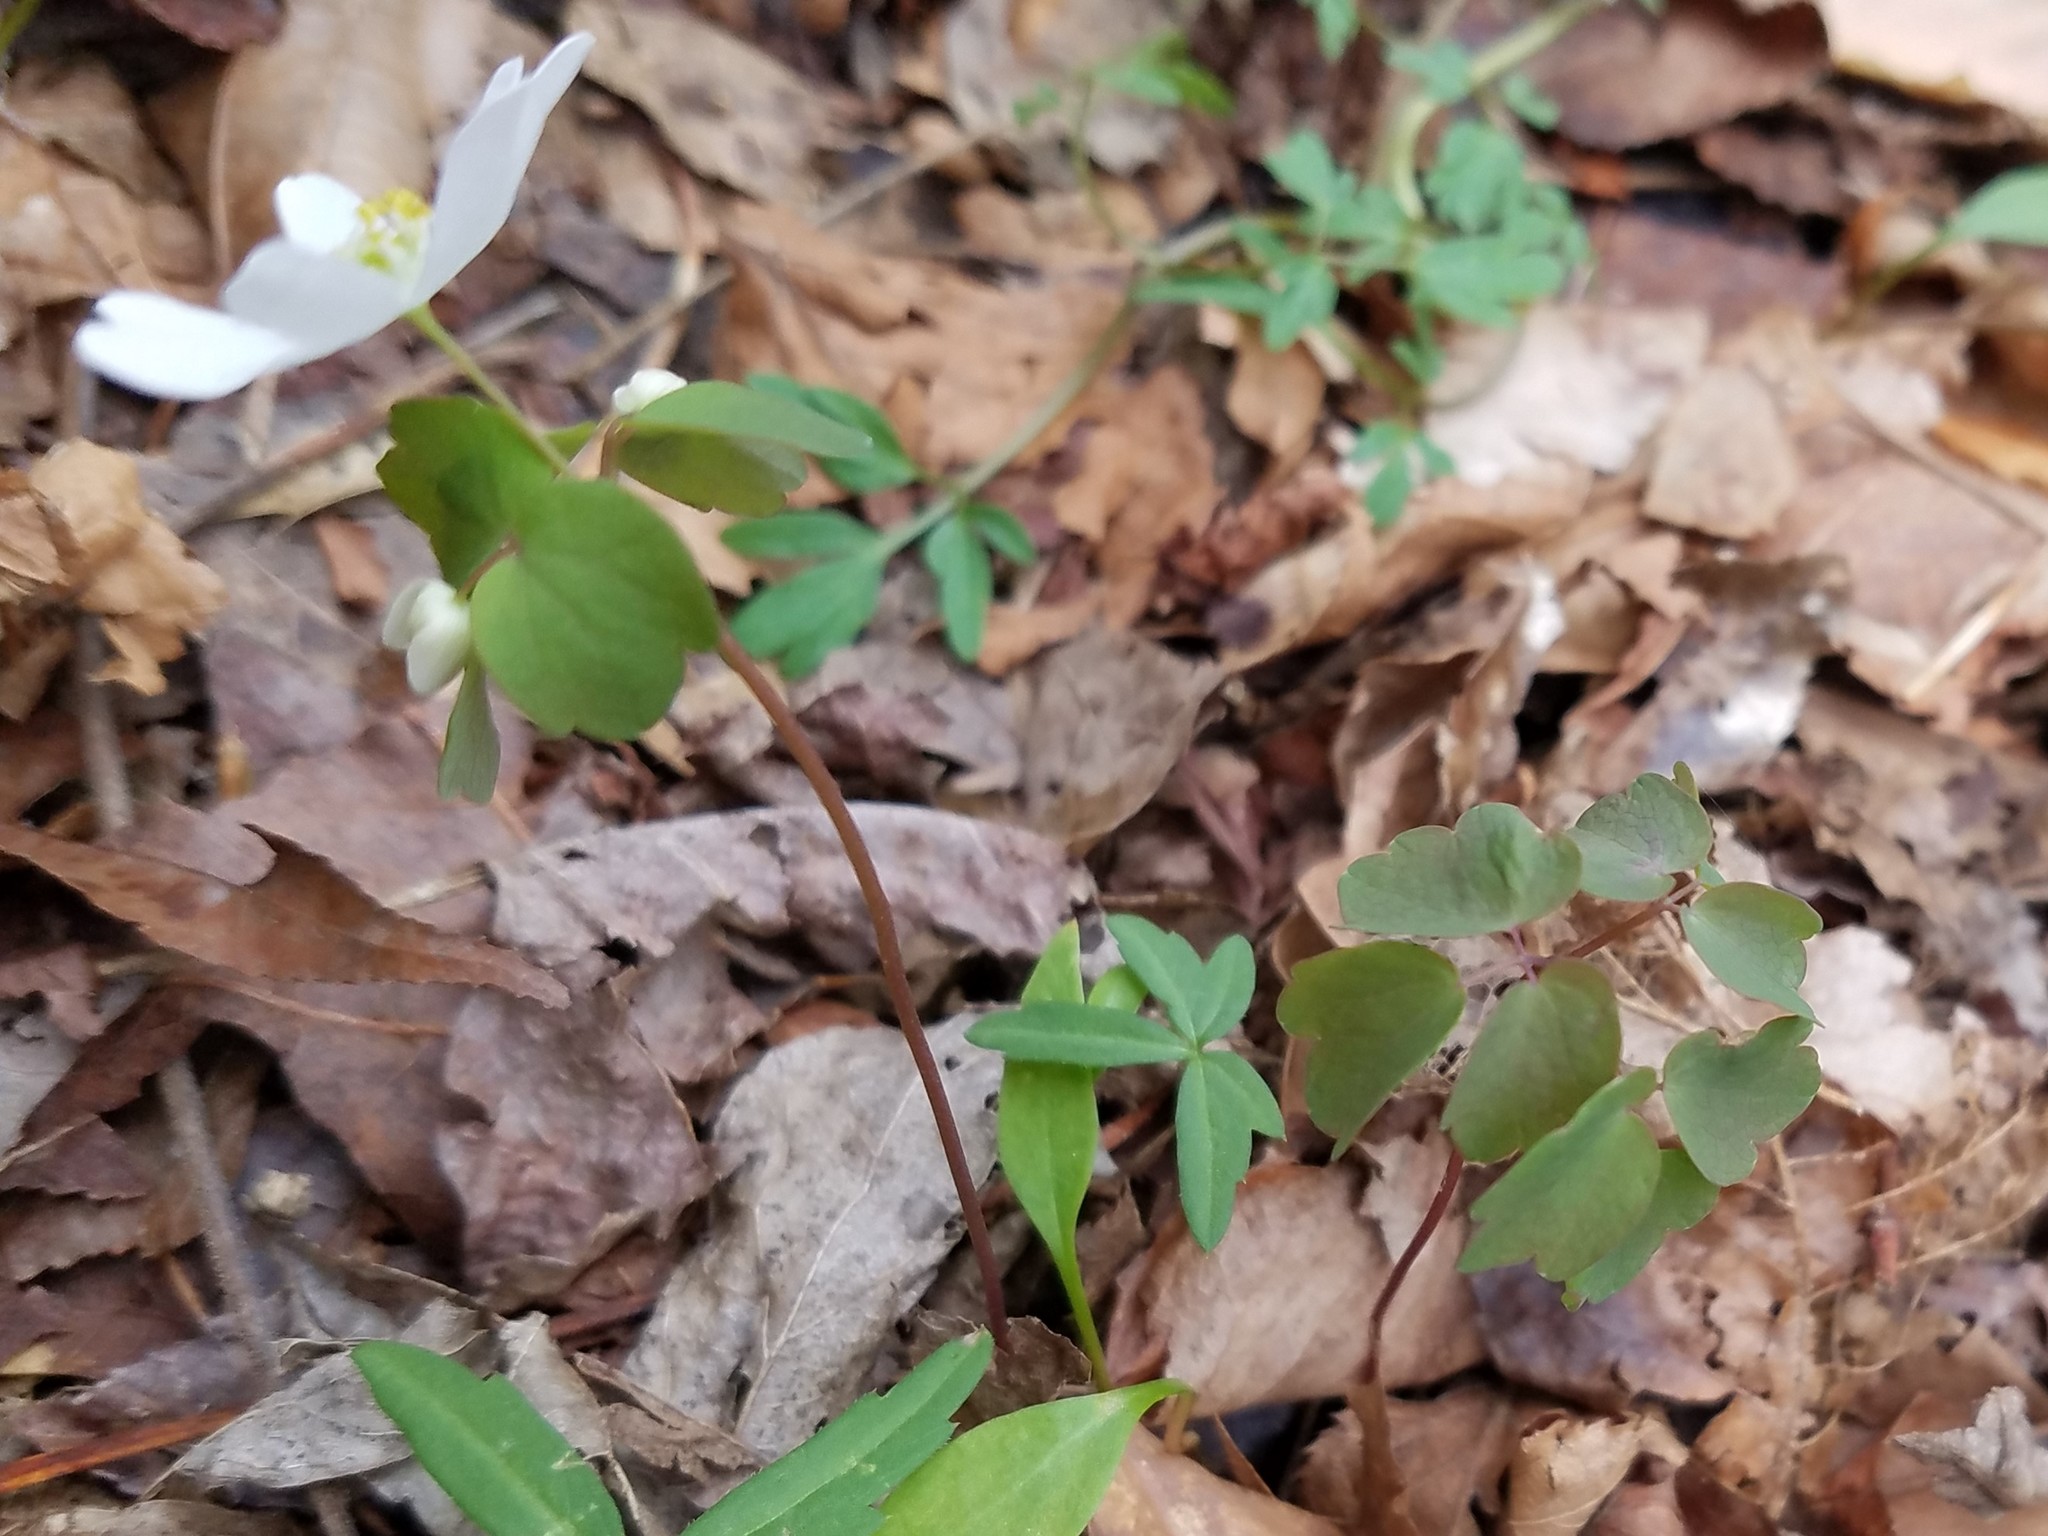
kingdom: Plantae
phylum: Tracheophyta
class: Magnoliopsida
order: Ranunculales
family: Ranunculaceae
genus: Thalictrum
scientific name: Thalictrum thalictroides
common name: Rue-anemone
